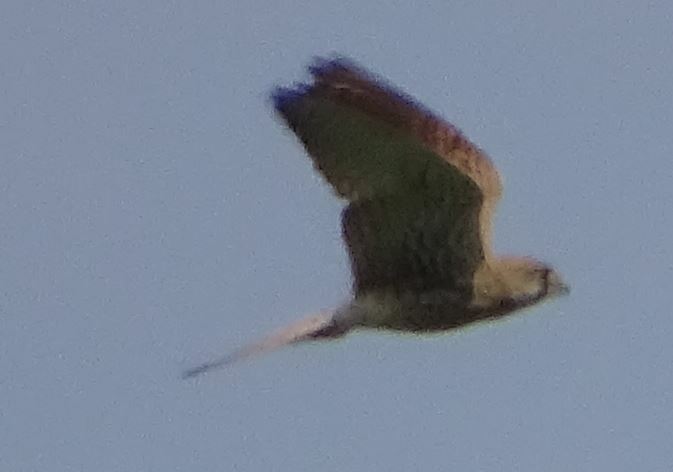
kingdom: Animalia
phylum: Chordata
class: Aves
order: Falconiformes
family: Falconidae
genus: Falco
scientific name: Falco tinnunculus
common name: Common kestrel
